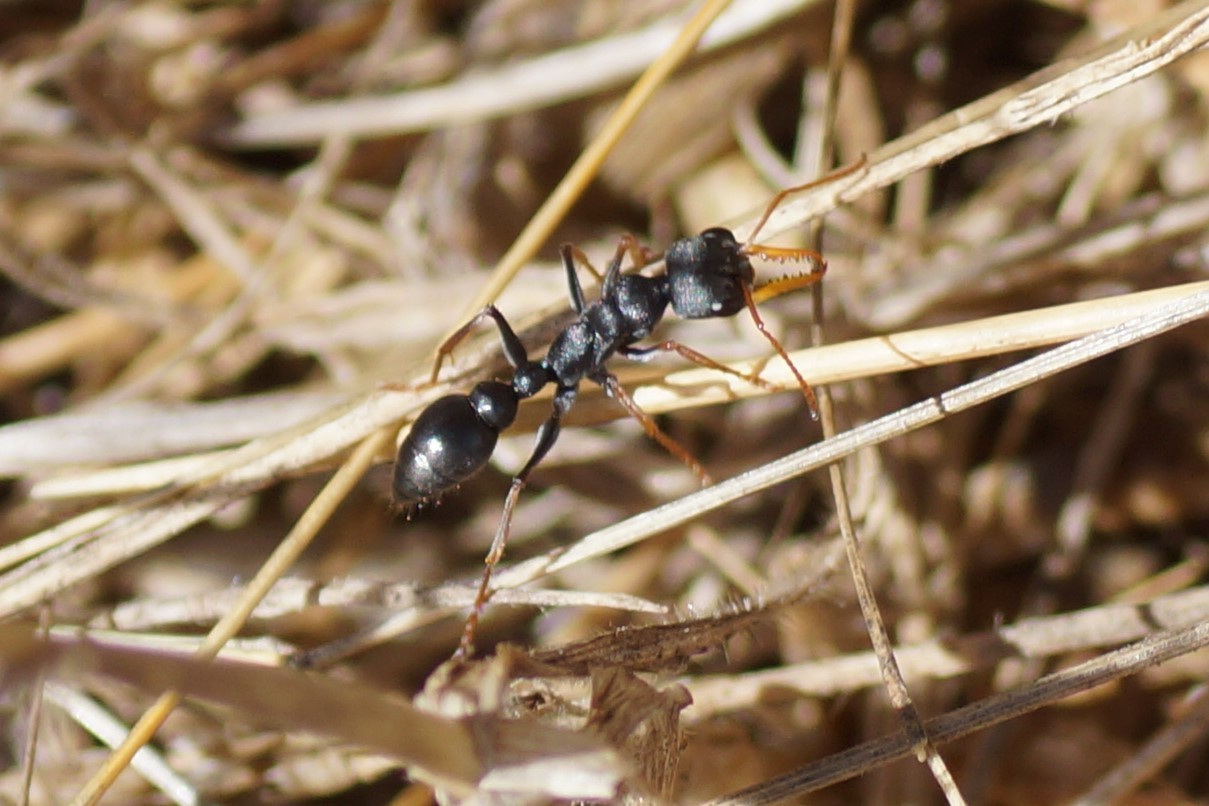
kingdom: Animalia
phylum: Arthropoda
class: Insecta
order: Hymenoptera
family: Formicidae
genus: Myrmecia
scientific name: Myrmecia pilosula
